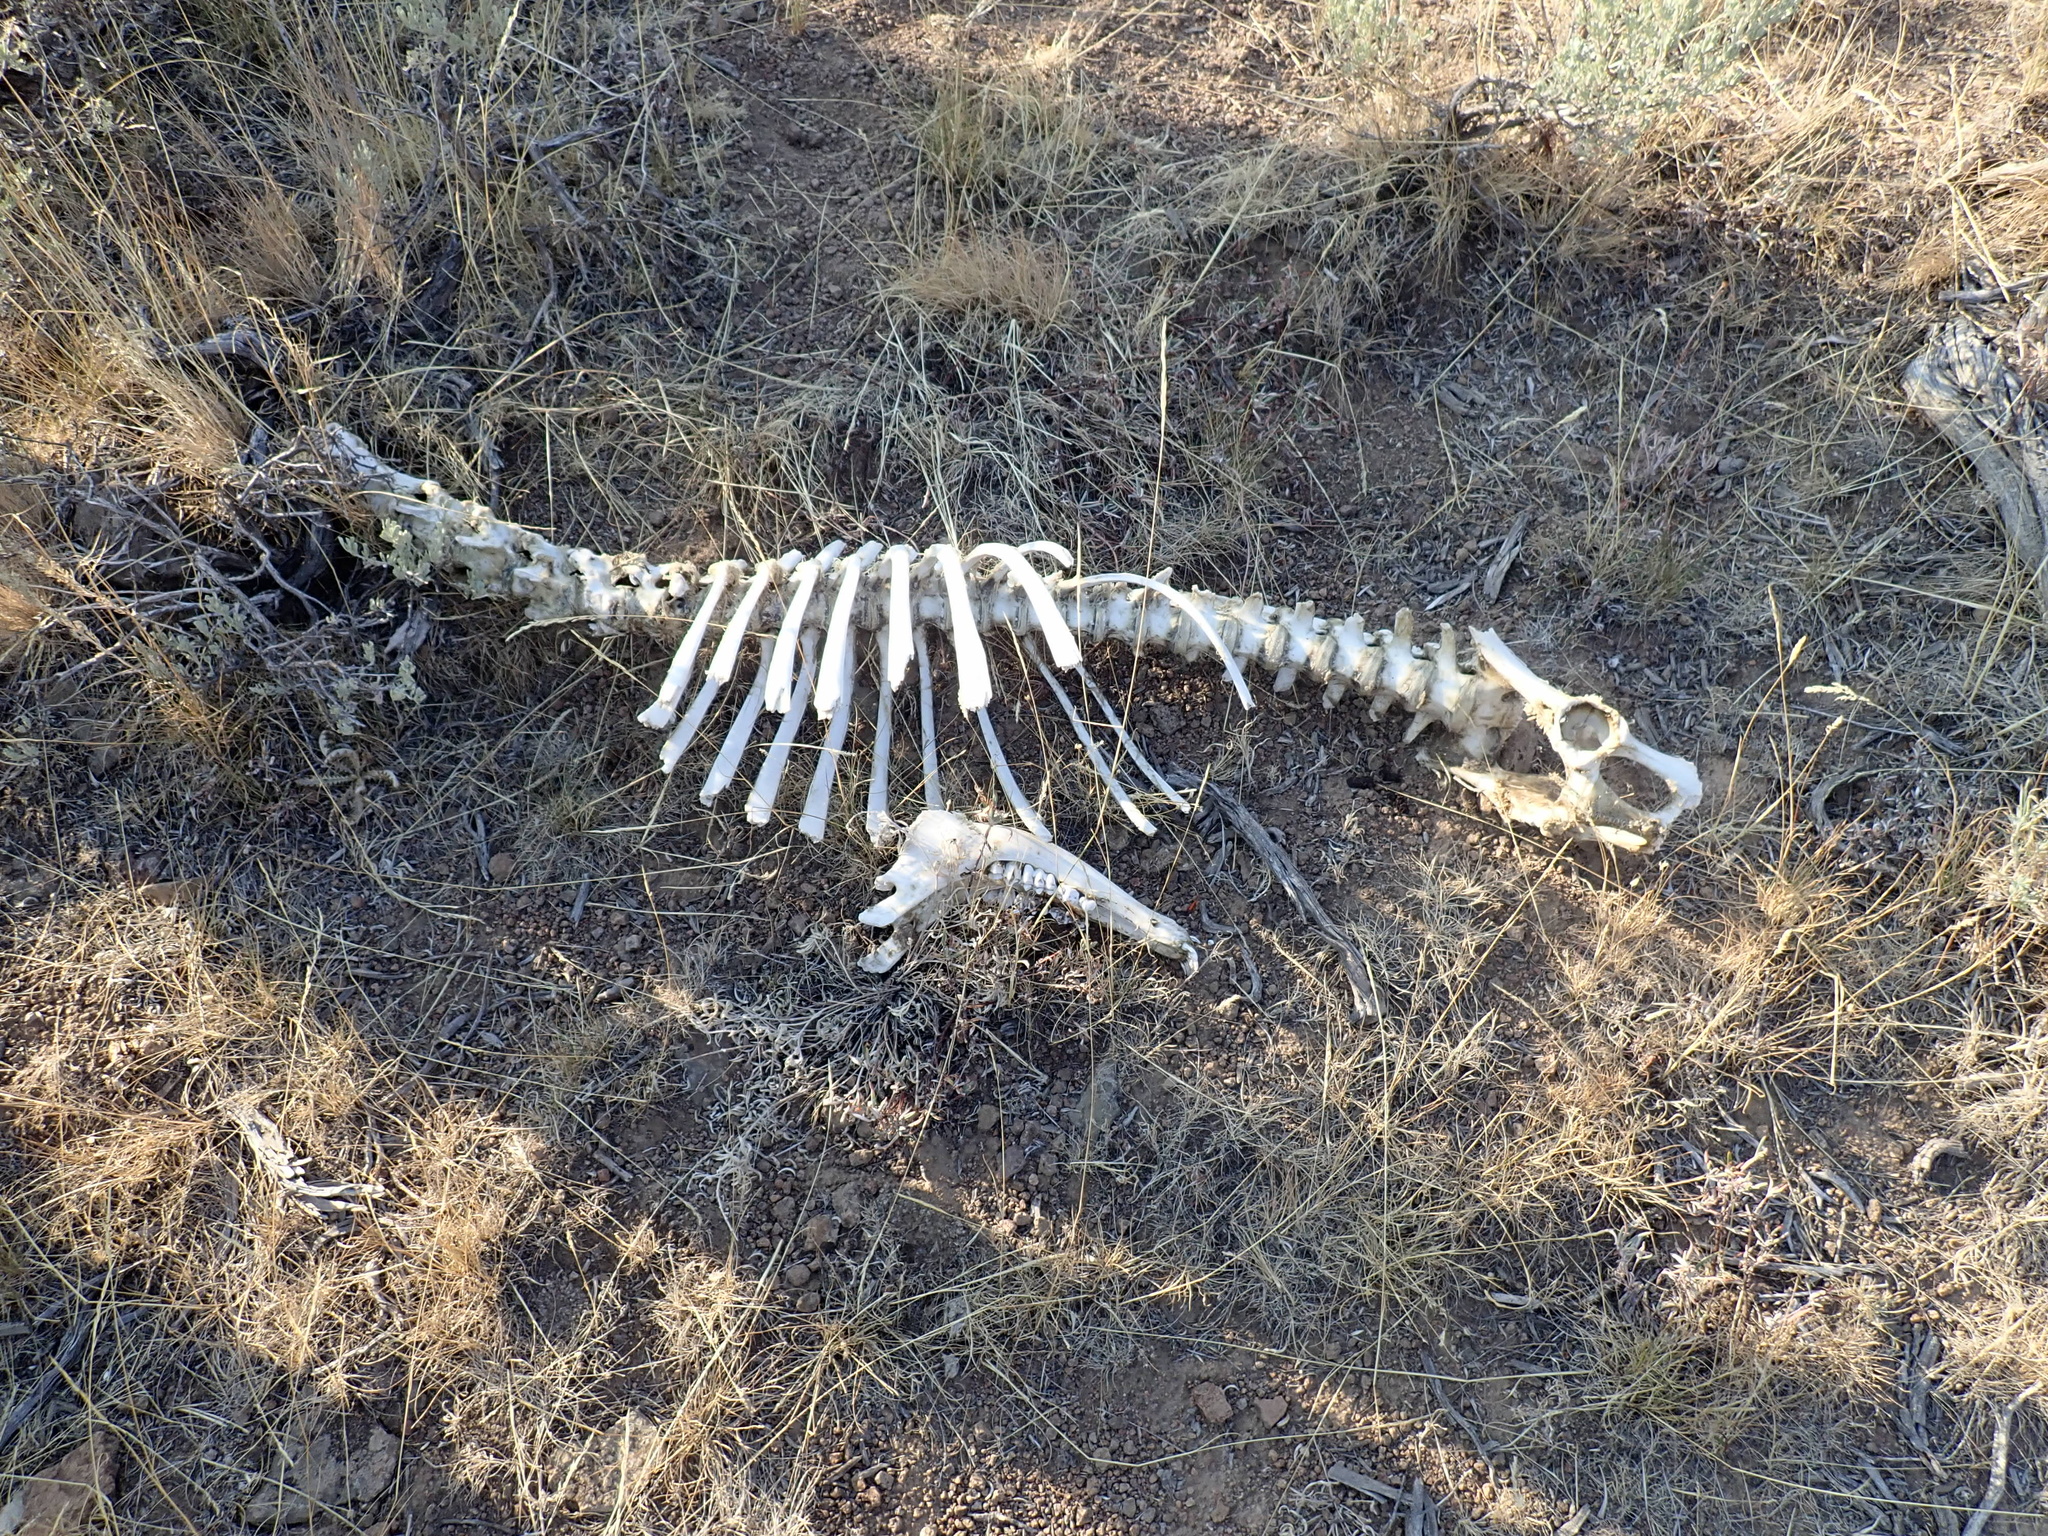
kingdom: Animalia
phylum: Chordata
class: Mammalia
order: Artiodactyla
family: Cervidae
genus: Odocoileus
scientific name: Odocoileus hemionus
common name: Mule deer
